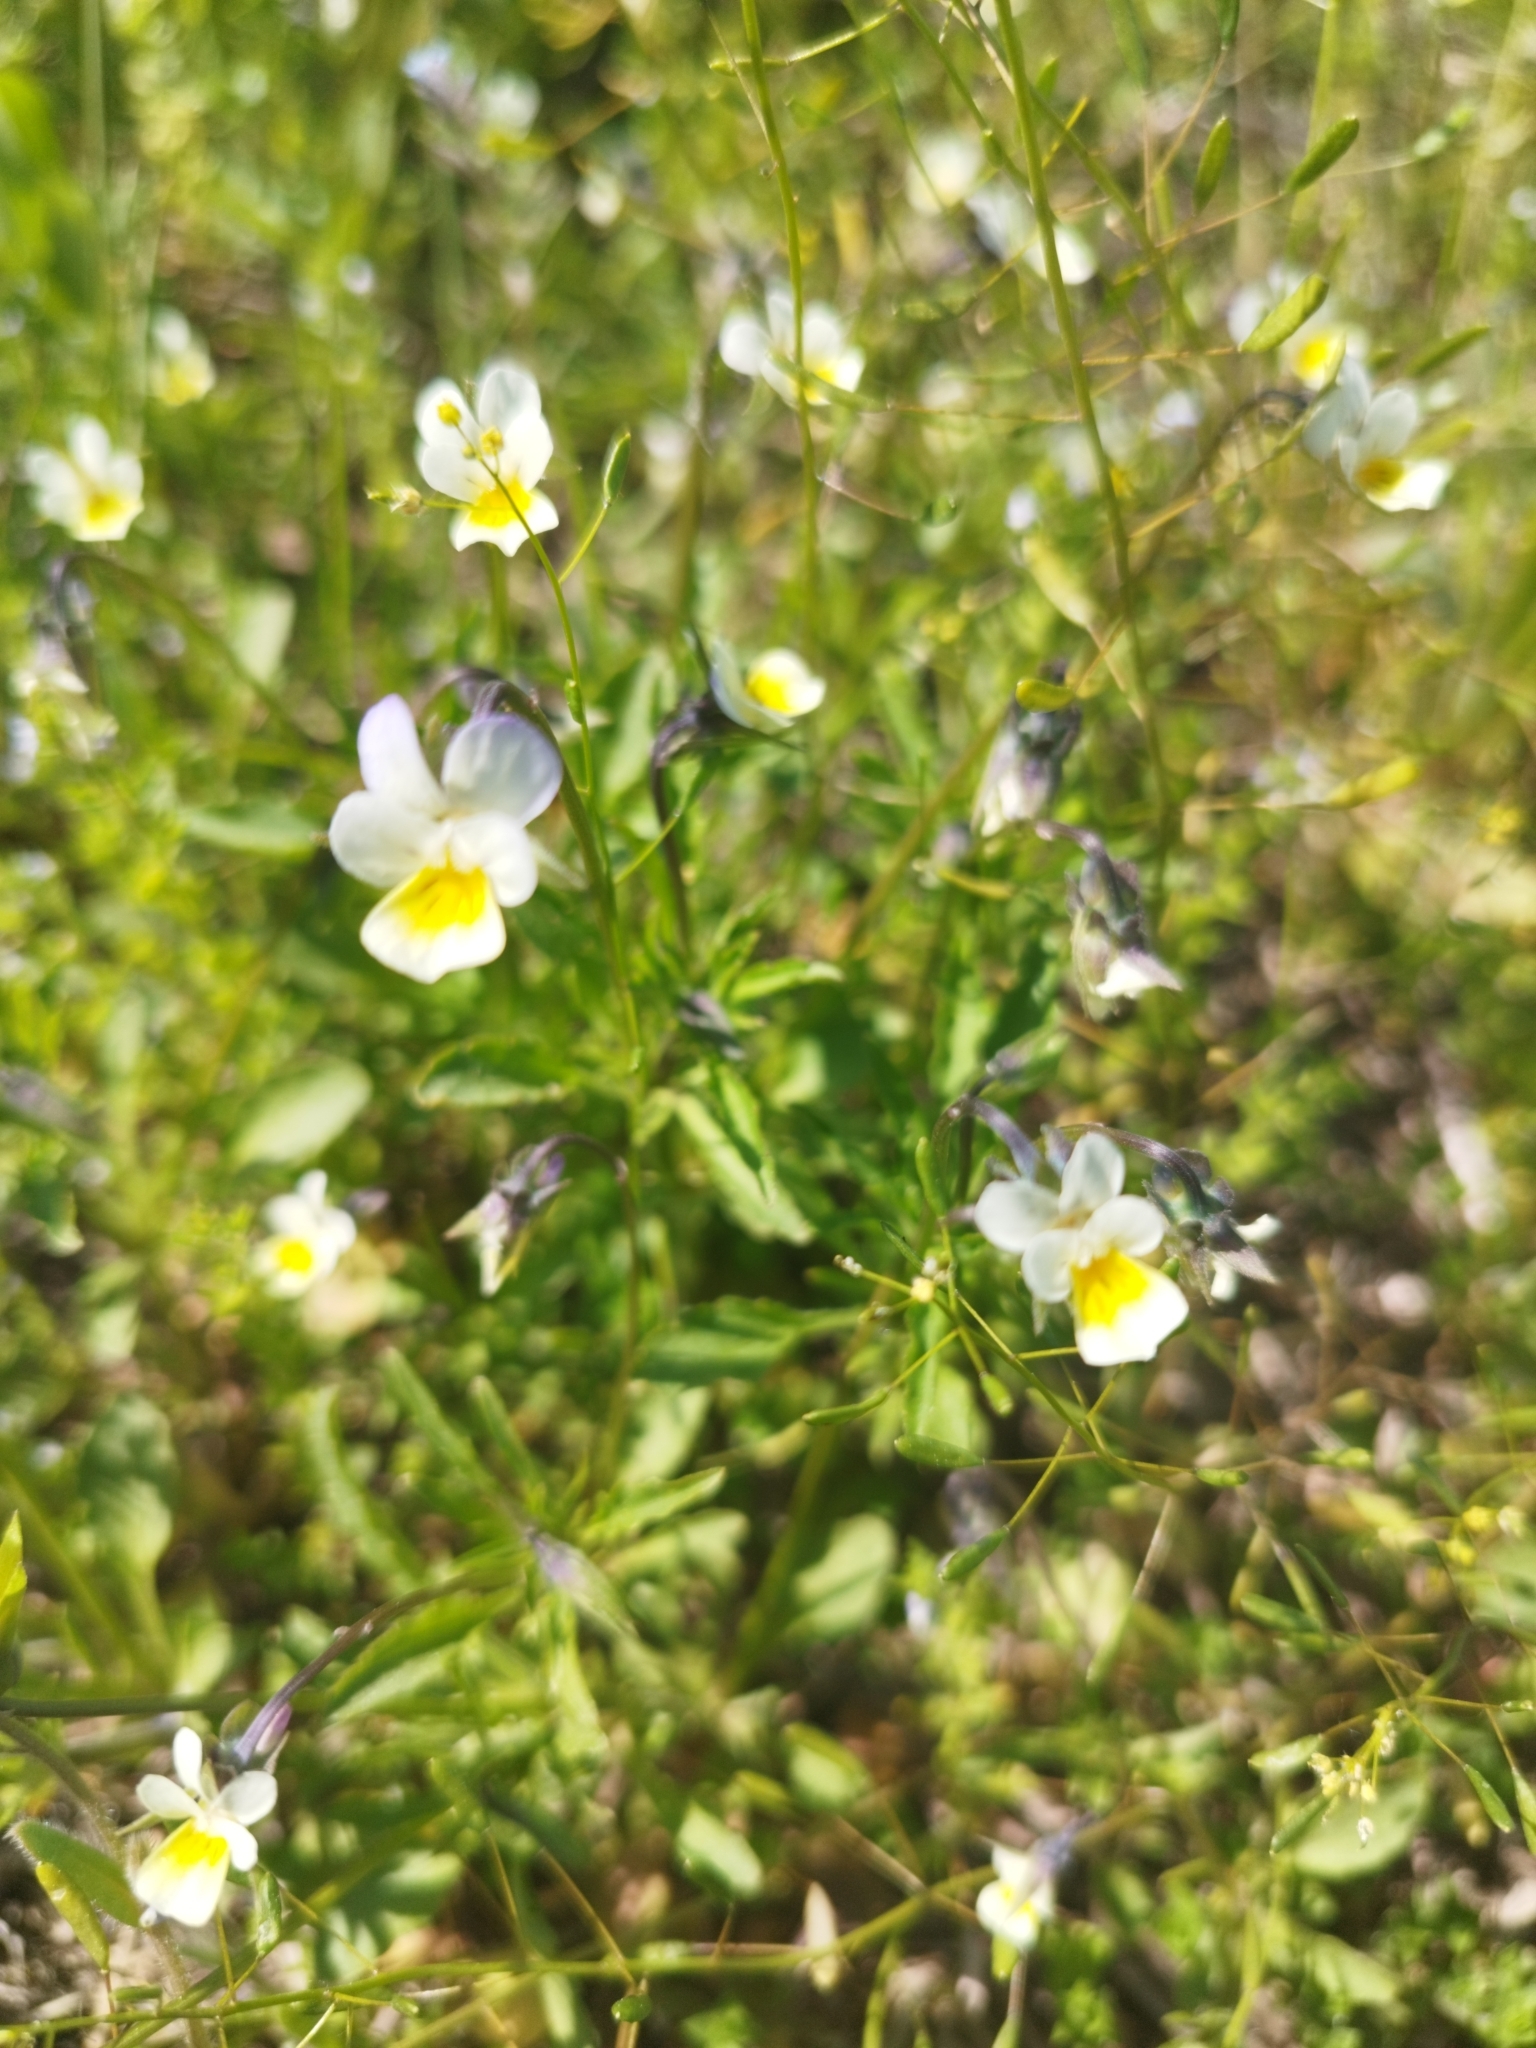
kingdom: Plantae
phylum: Tracheophyta
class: Magnoliopsida
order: Malpighiales
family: Violaceae
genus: Viola
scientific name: Viola arvensis
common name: Field pansy
